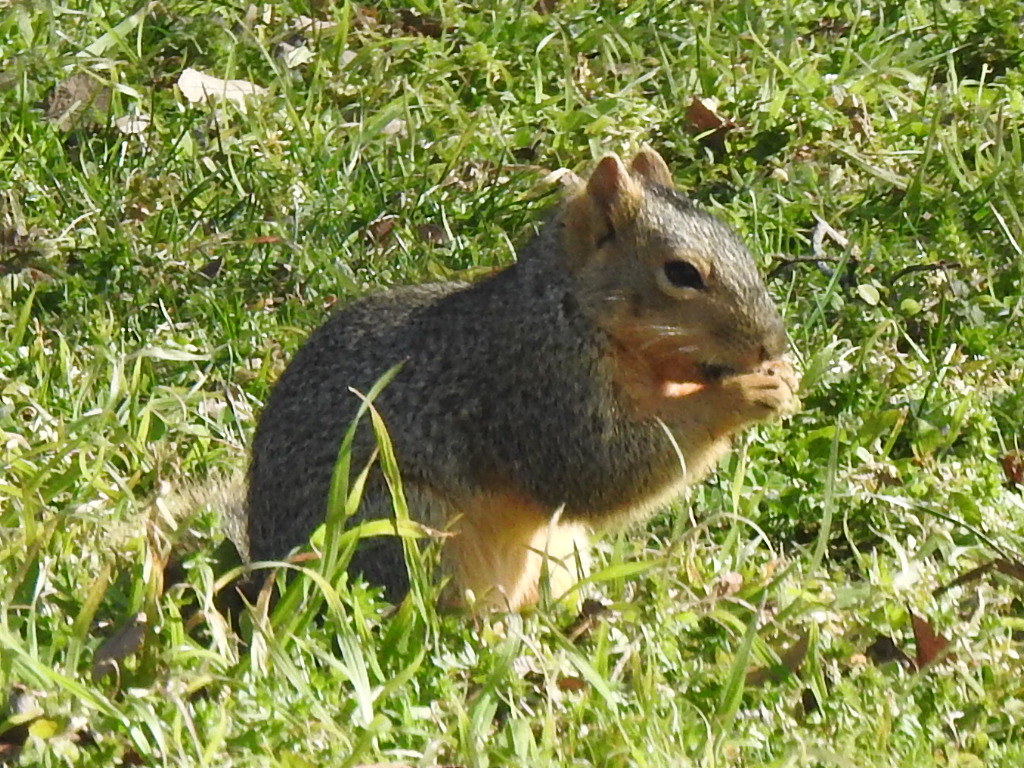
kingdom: Animalia
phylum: Chordata
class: Mammalia
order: Rodentia
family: Sciuridae
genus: Sciurus
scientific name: Sciurus niger
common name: Fox squirrel
